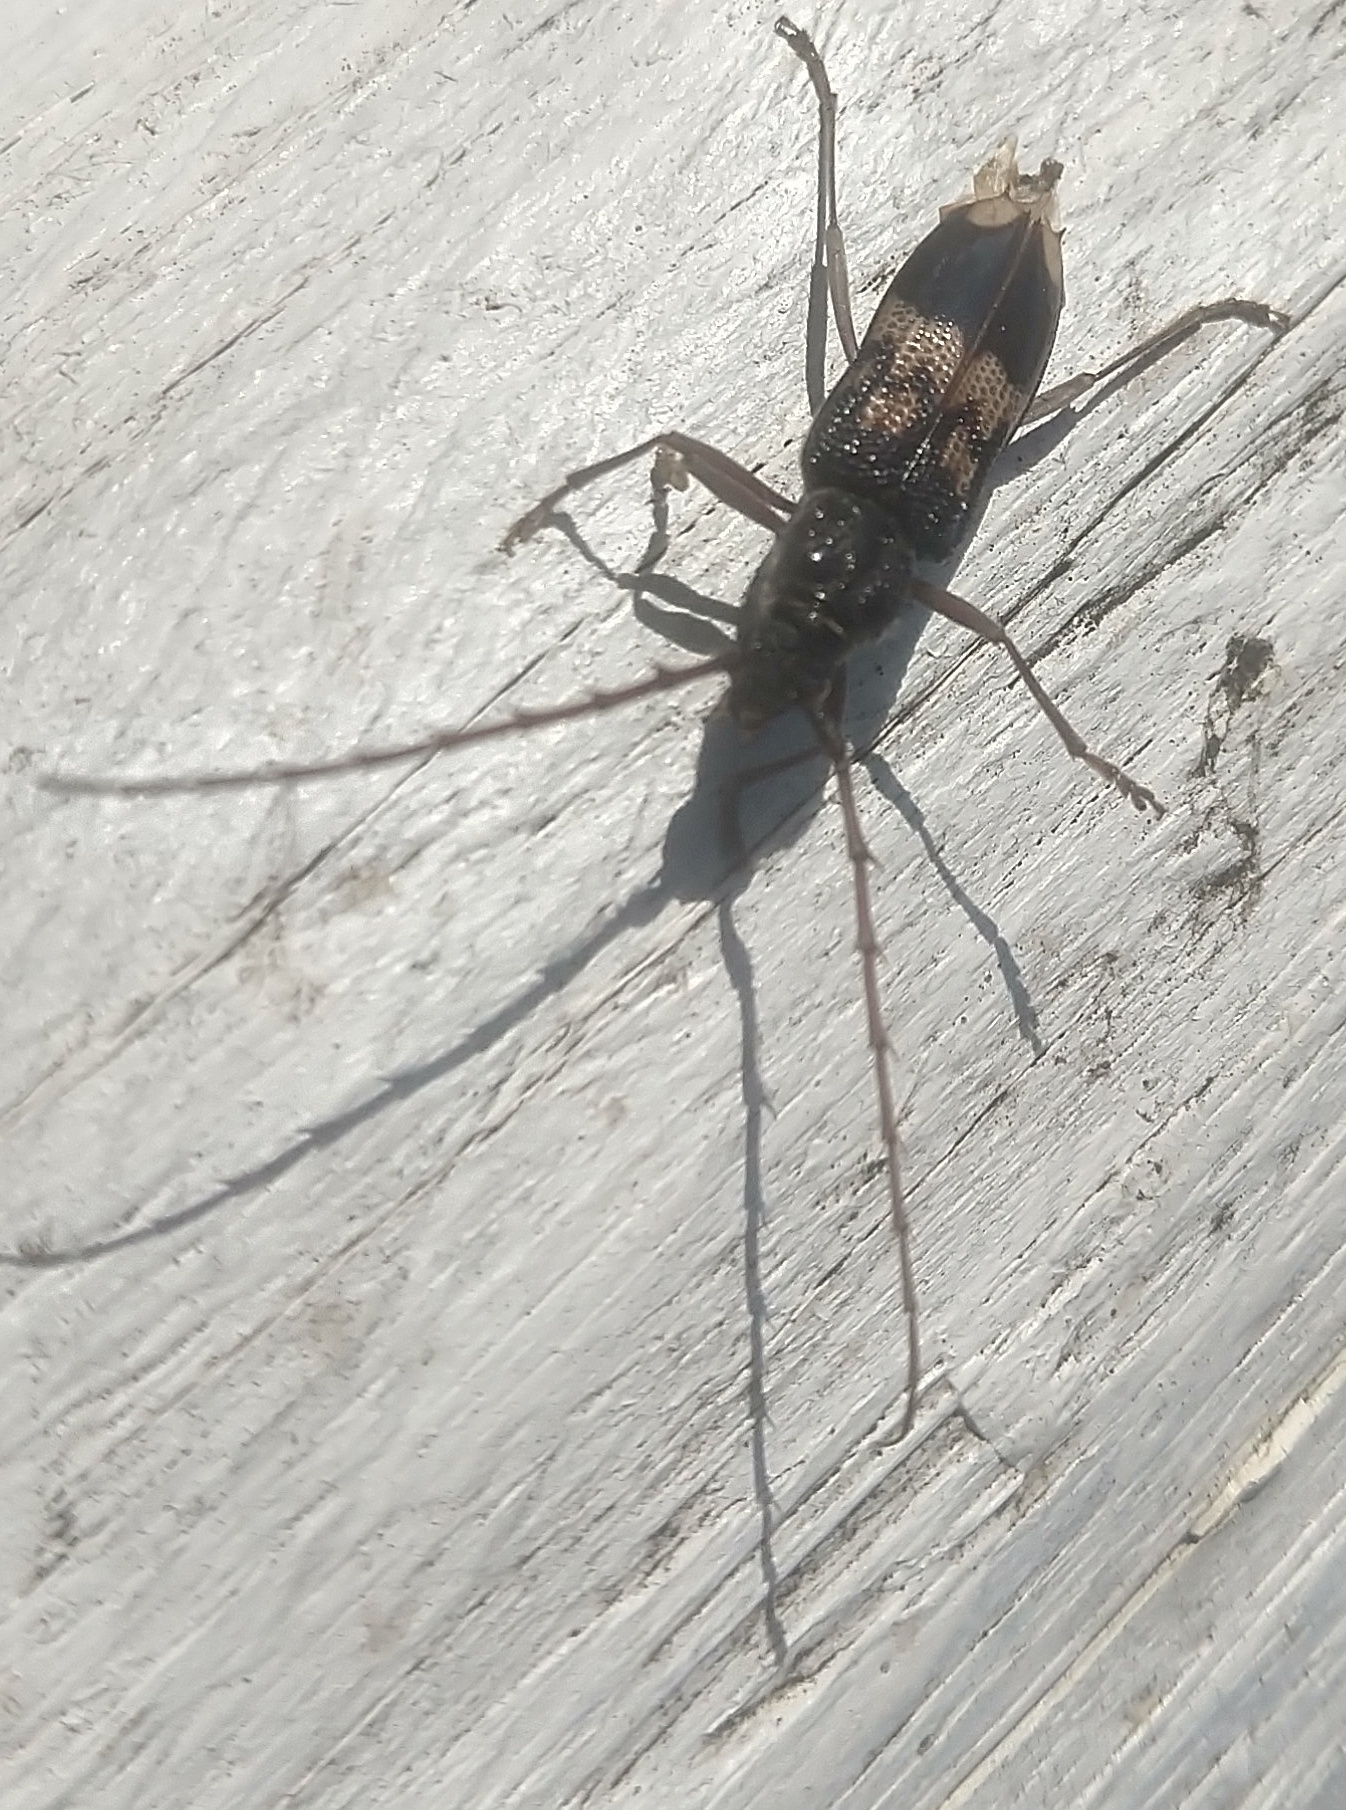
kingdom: Animalia
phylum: Arthropoda
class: Insecta
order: Coleoptera
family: Cerambycidae
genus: Phoracantha
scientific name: Phoracantha semipunctata
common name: Eucalyptus longhorn borer
